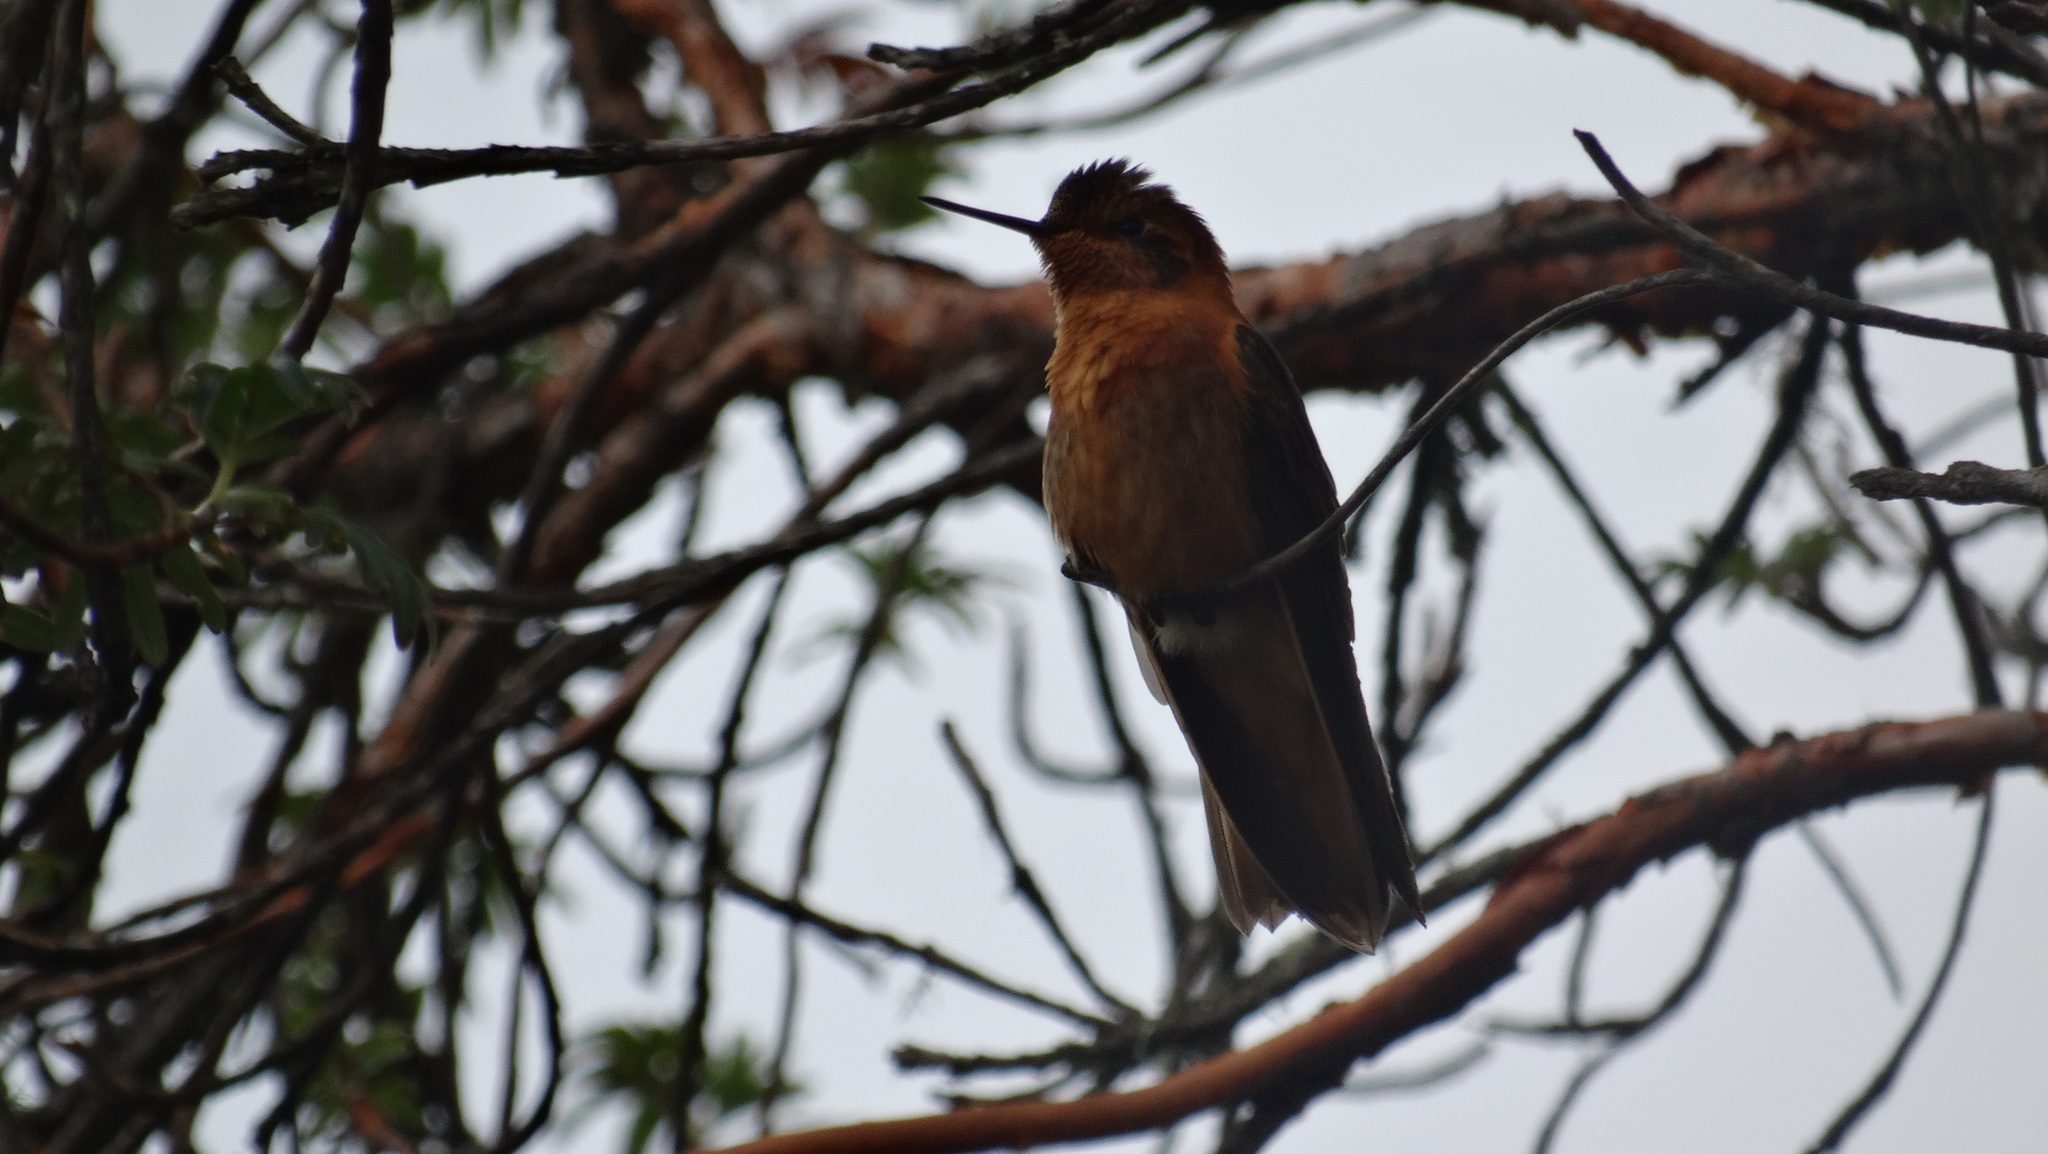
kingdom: Animalia
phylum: Chordata
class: Aves
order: Apodiformes
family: Trochilidae
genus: Aglaeactis
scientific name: Aglaeactis cupripennis
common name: Shining sunbeam
